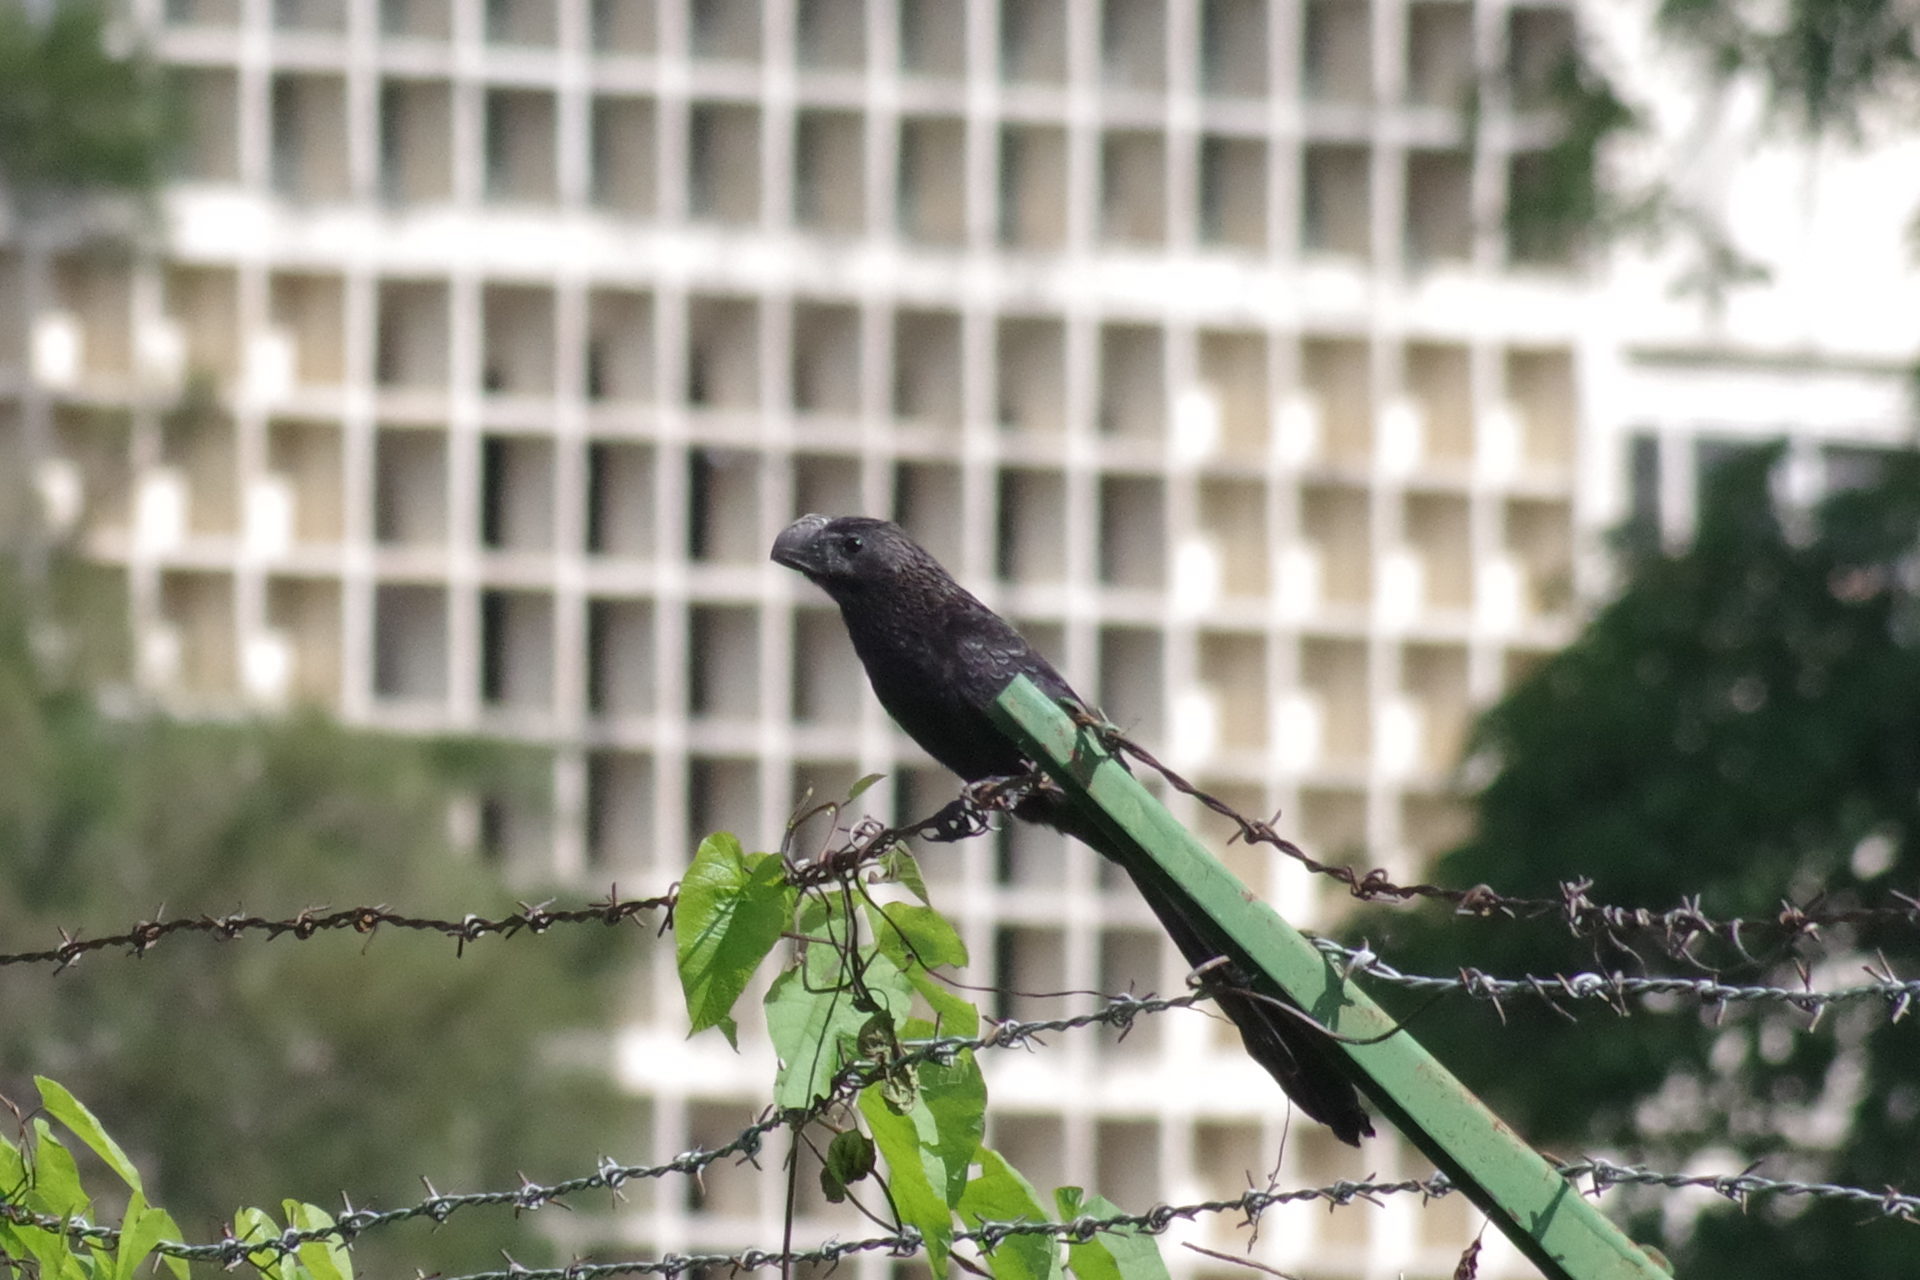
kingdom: Animalia
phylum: Chordata
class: Aves
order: Cuculiformes
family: Cuculidae
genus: Crotophaga
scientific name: Crotophaga ani
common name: Smooth-billed ani
